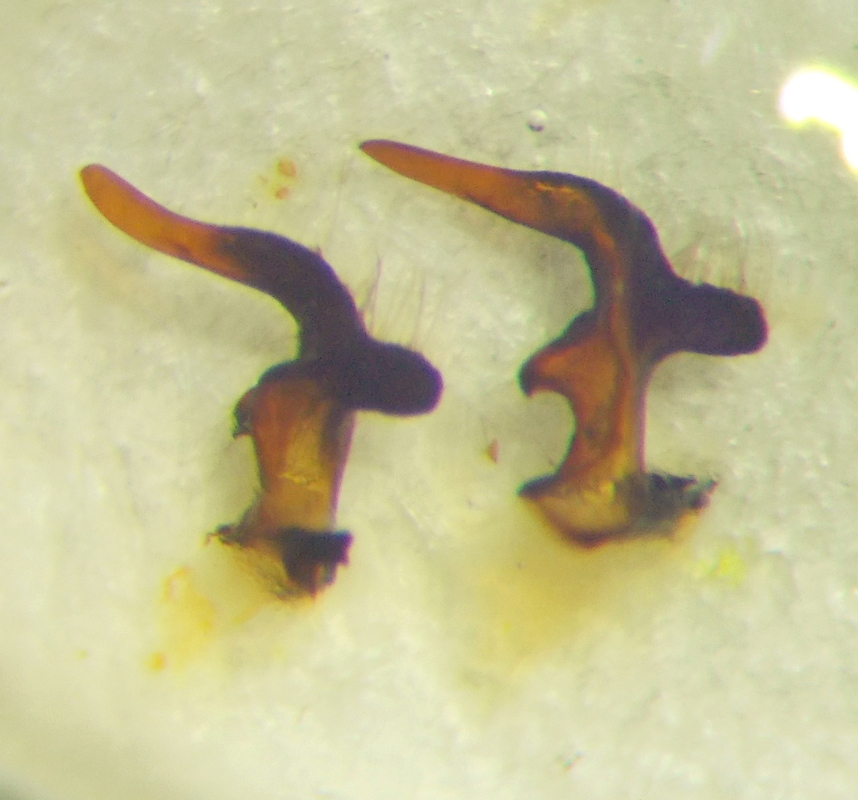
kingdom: Animalia
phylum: Arthropoda
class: Insecta
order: Hemiptera
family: Lygaeidae
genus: Lygaeus
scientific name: Lygaeus simulans
